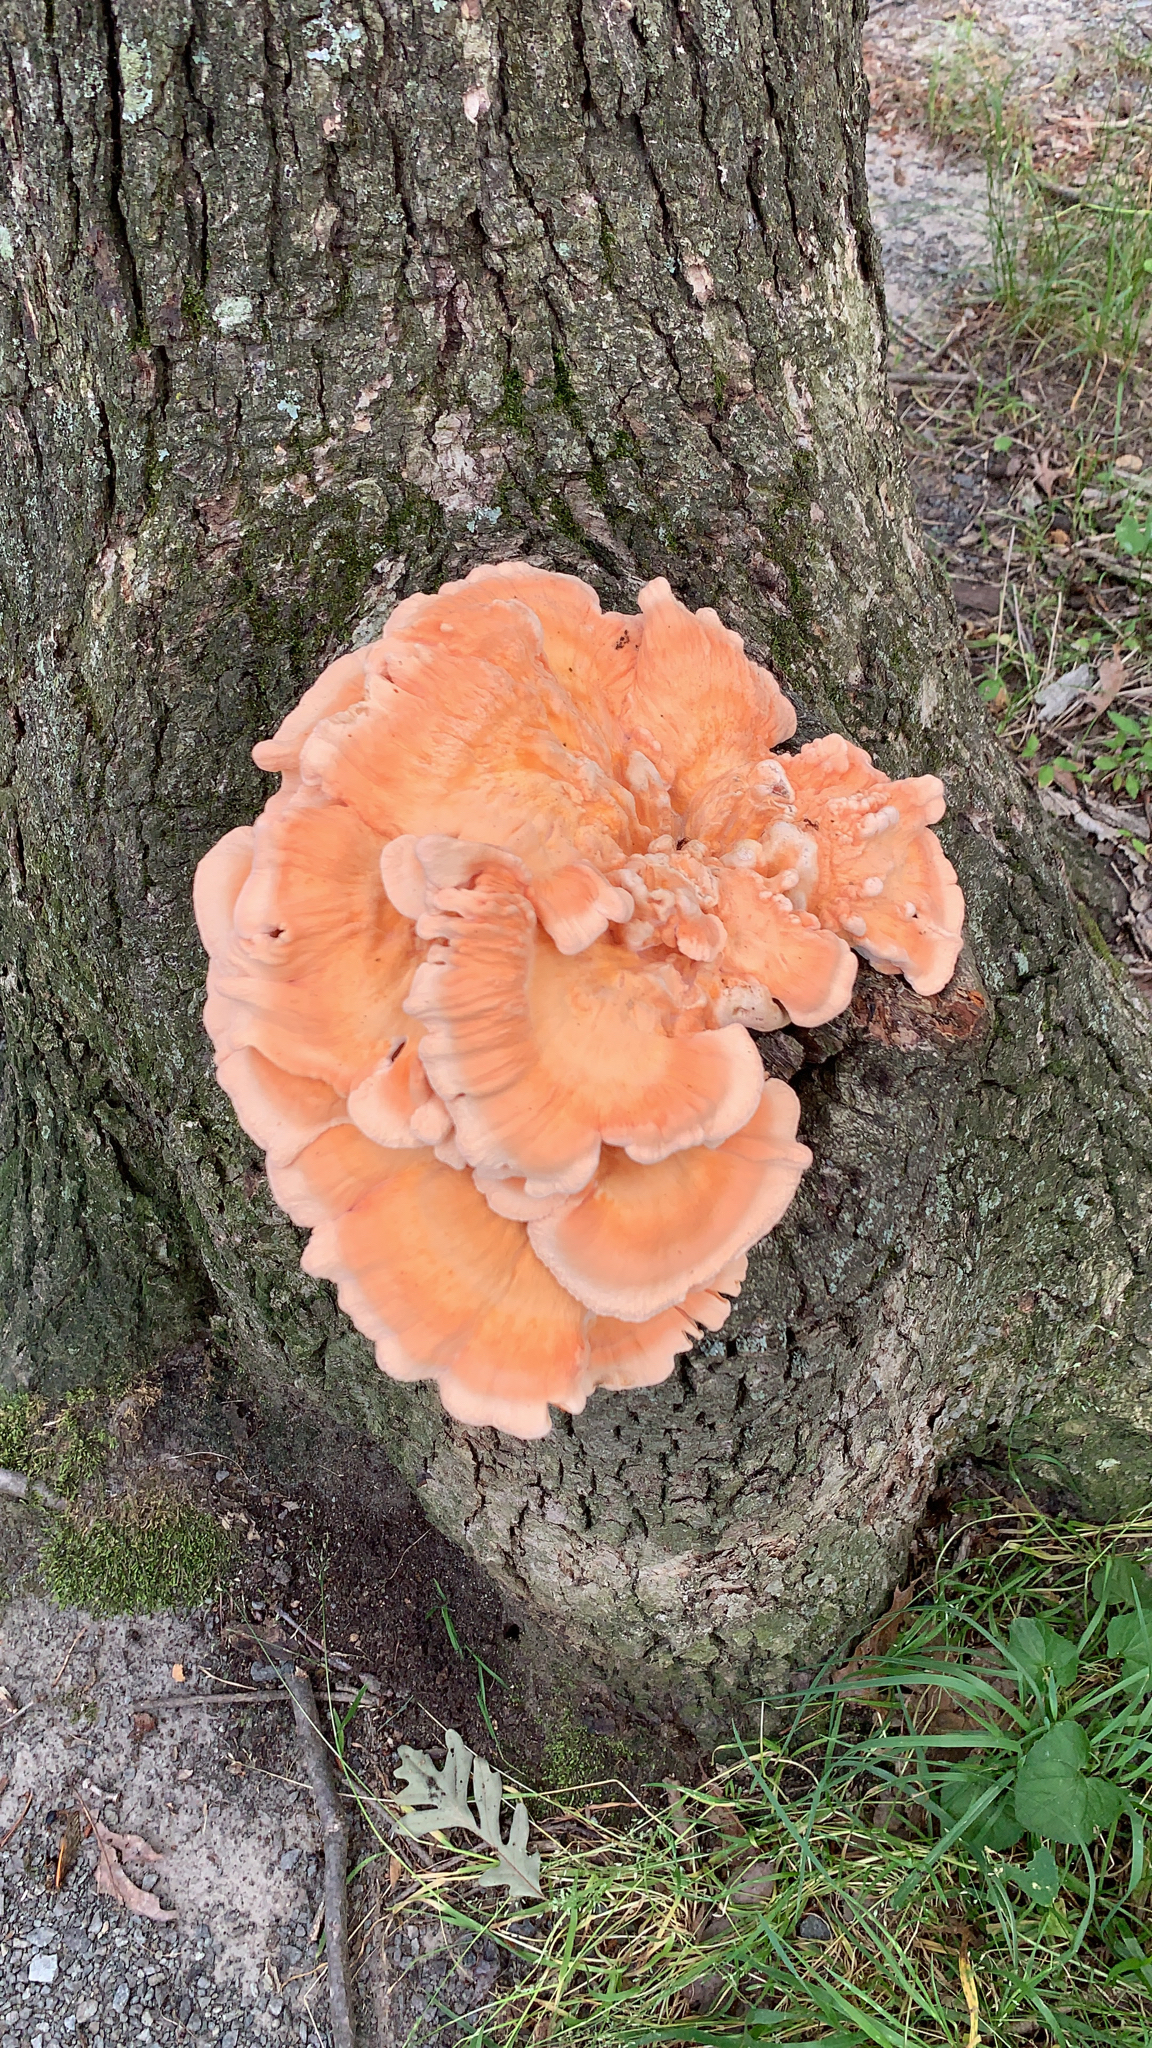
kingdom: Fungi
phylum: Basidiomycota
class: Agaricomycetes
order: Polyporales
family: Laetiporaceae
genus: Laetiporus
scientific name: Laetiporus sulphureus
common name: Chicken of the woods
